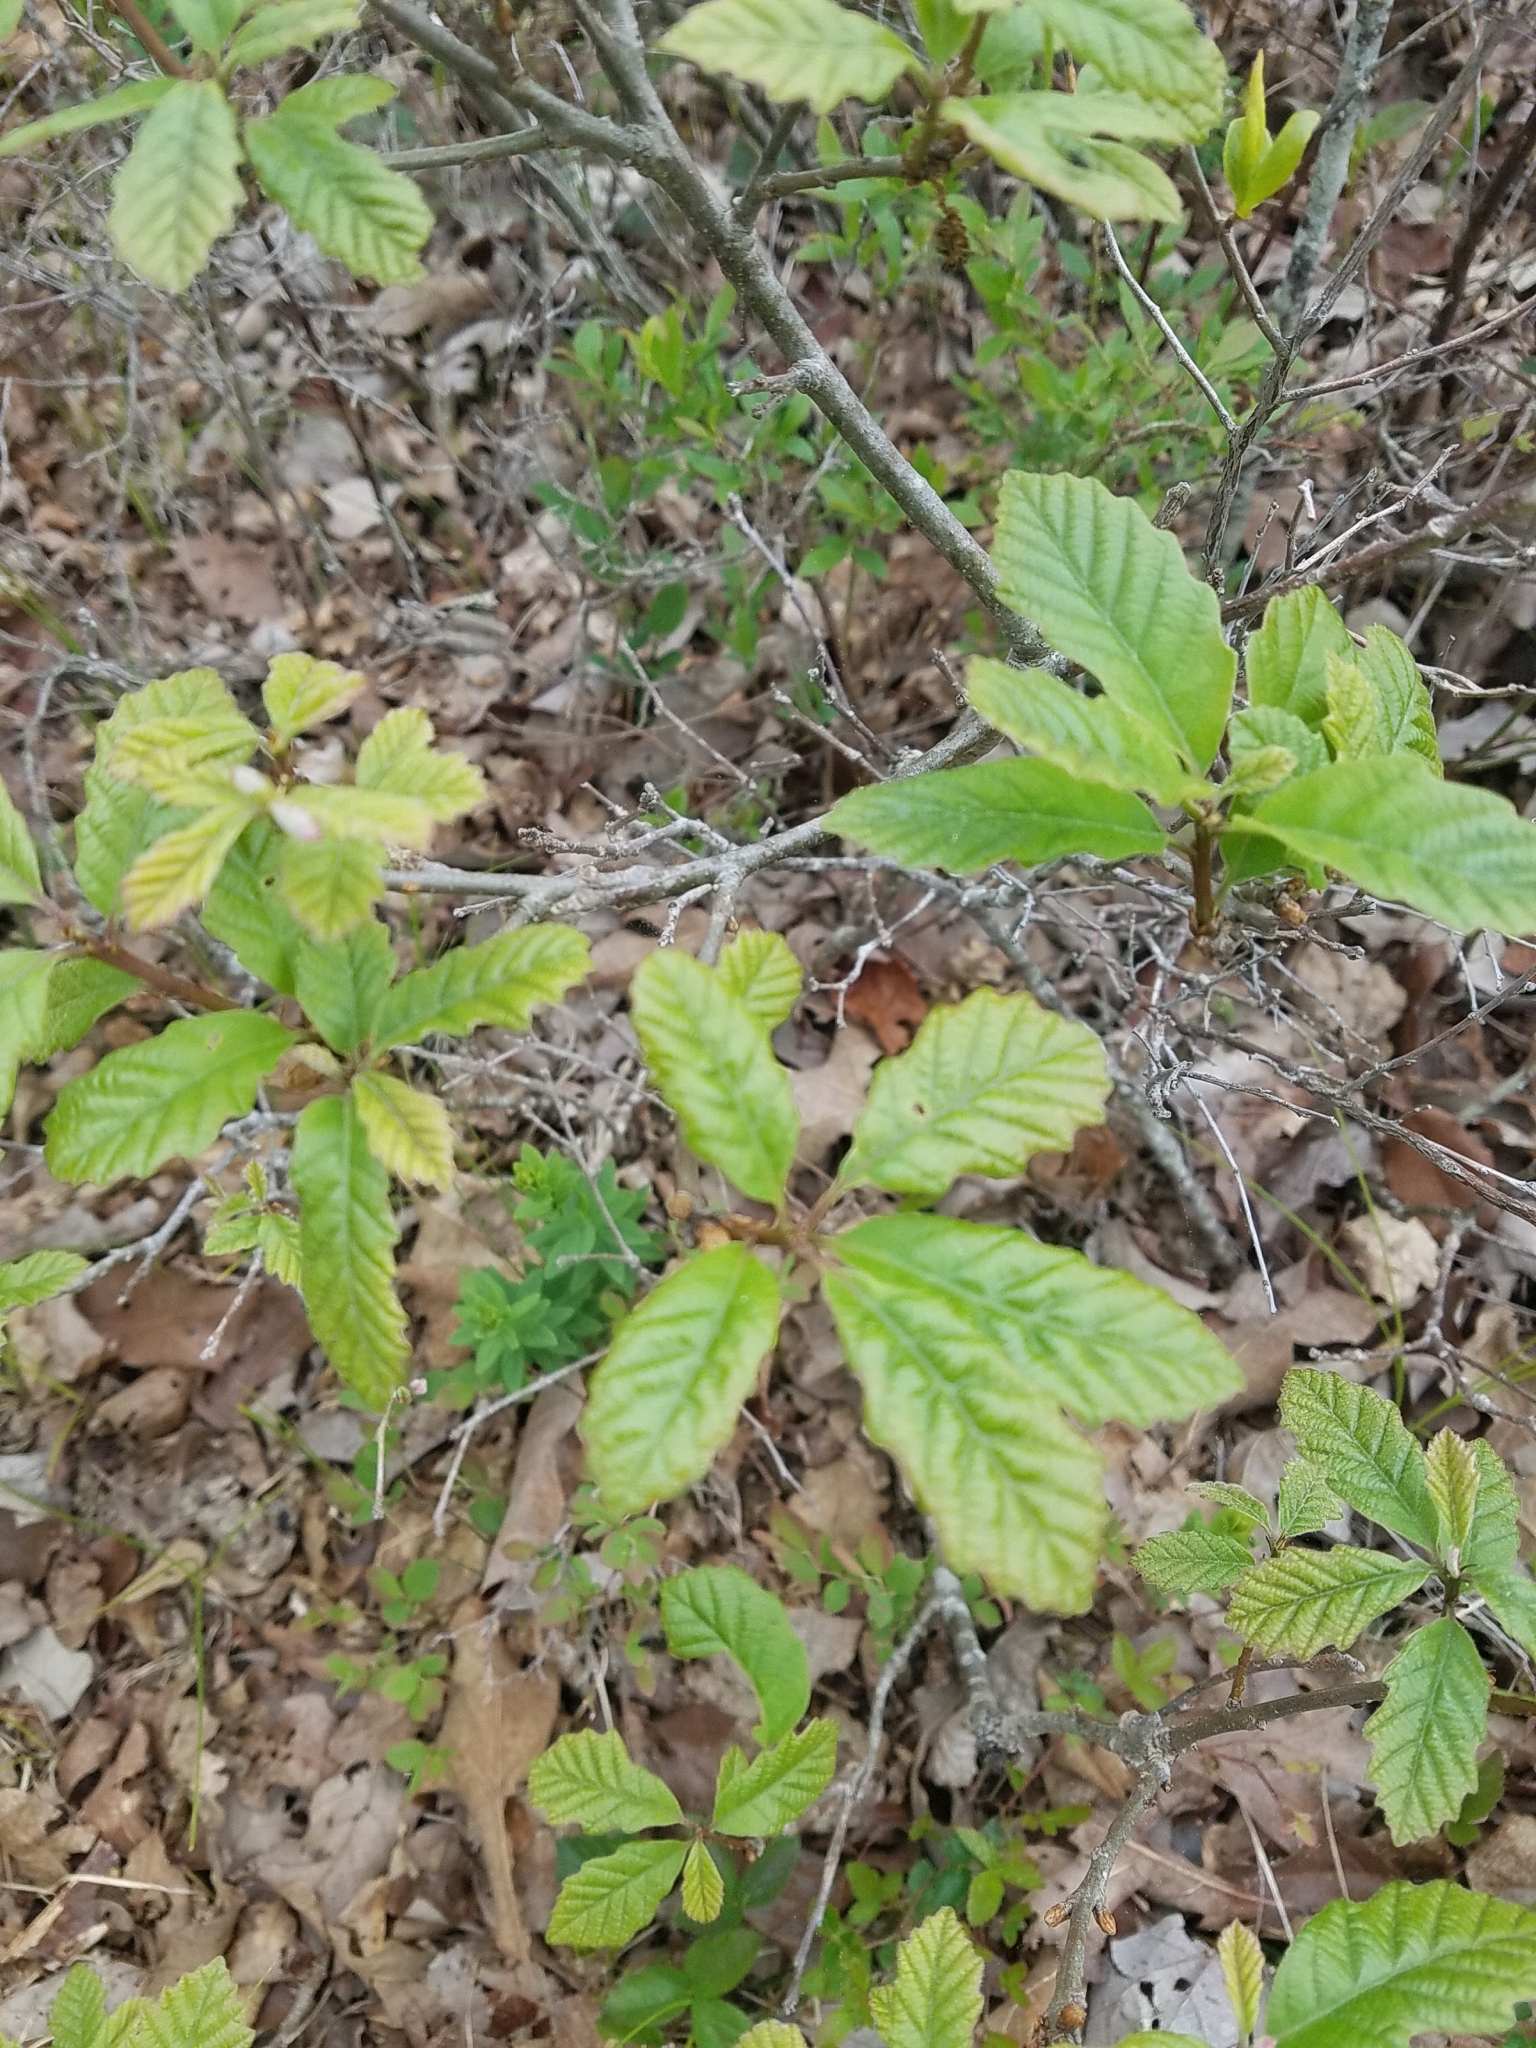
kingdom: Plantae
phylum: Tracheophyta
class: Magnoliopsida
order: Fagales
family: Fagaceae
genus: Quercus
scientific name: Quercus prinoides
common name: Dwarf chinkapin oak
